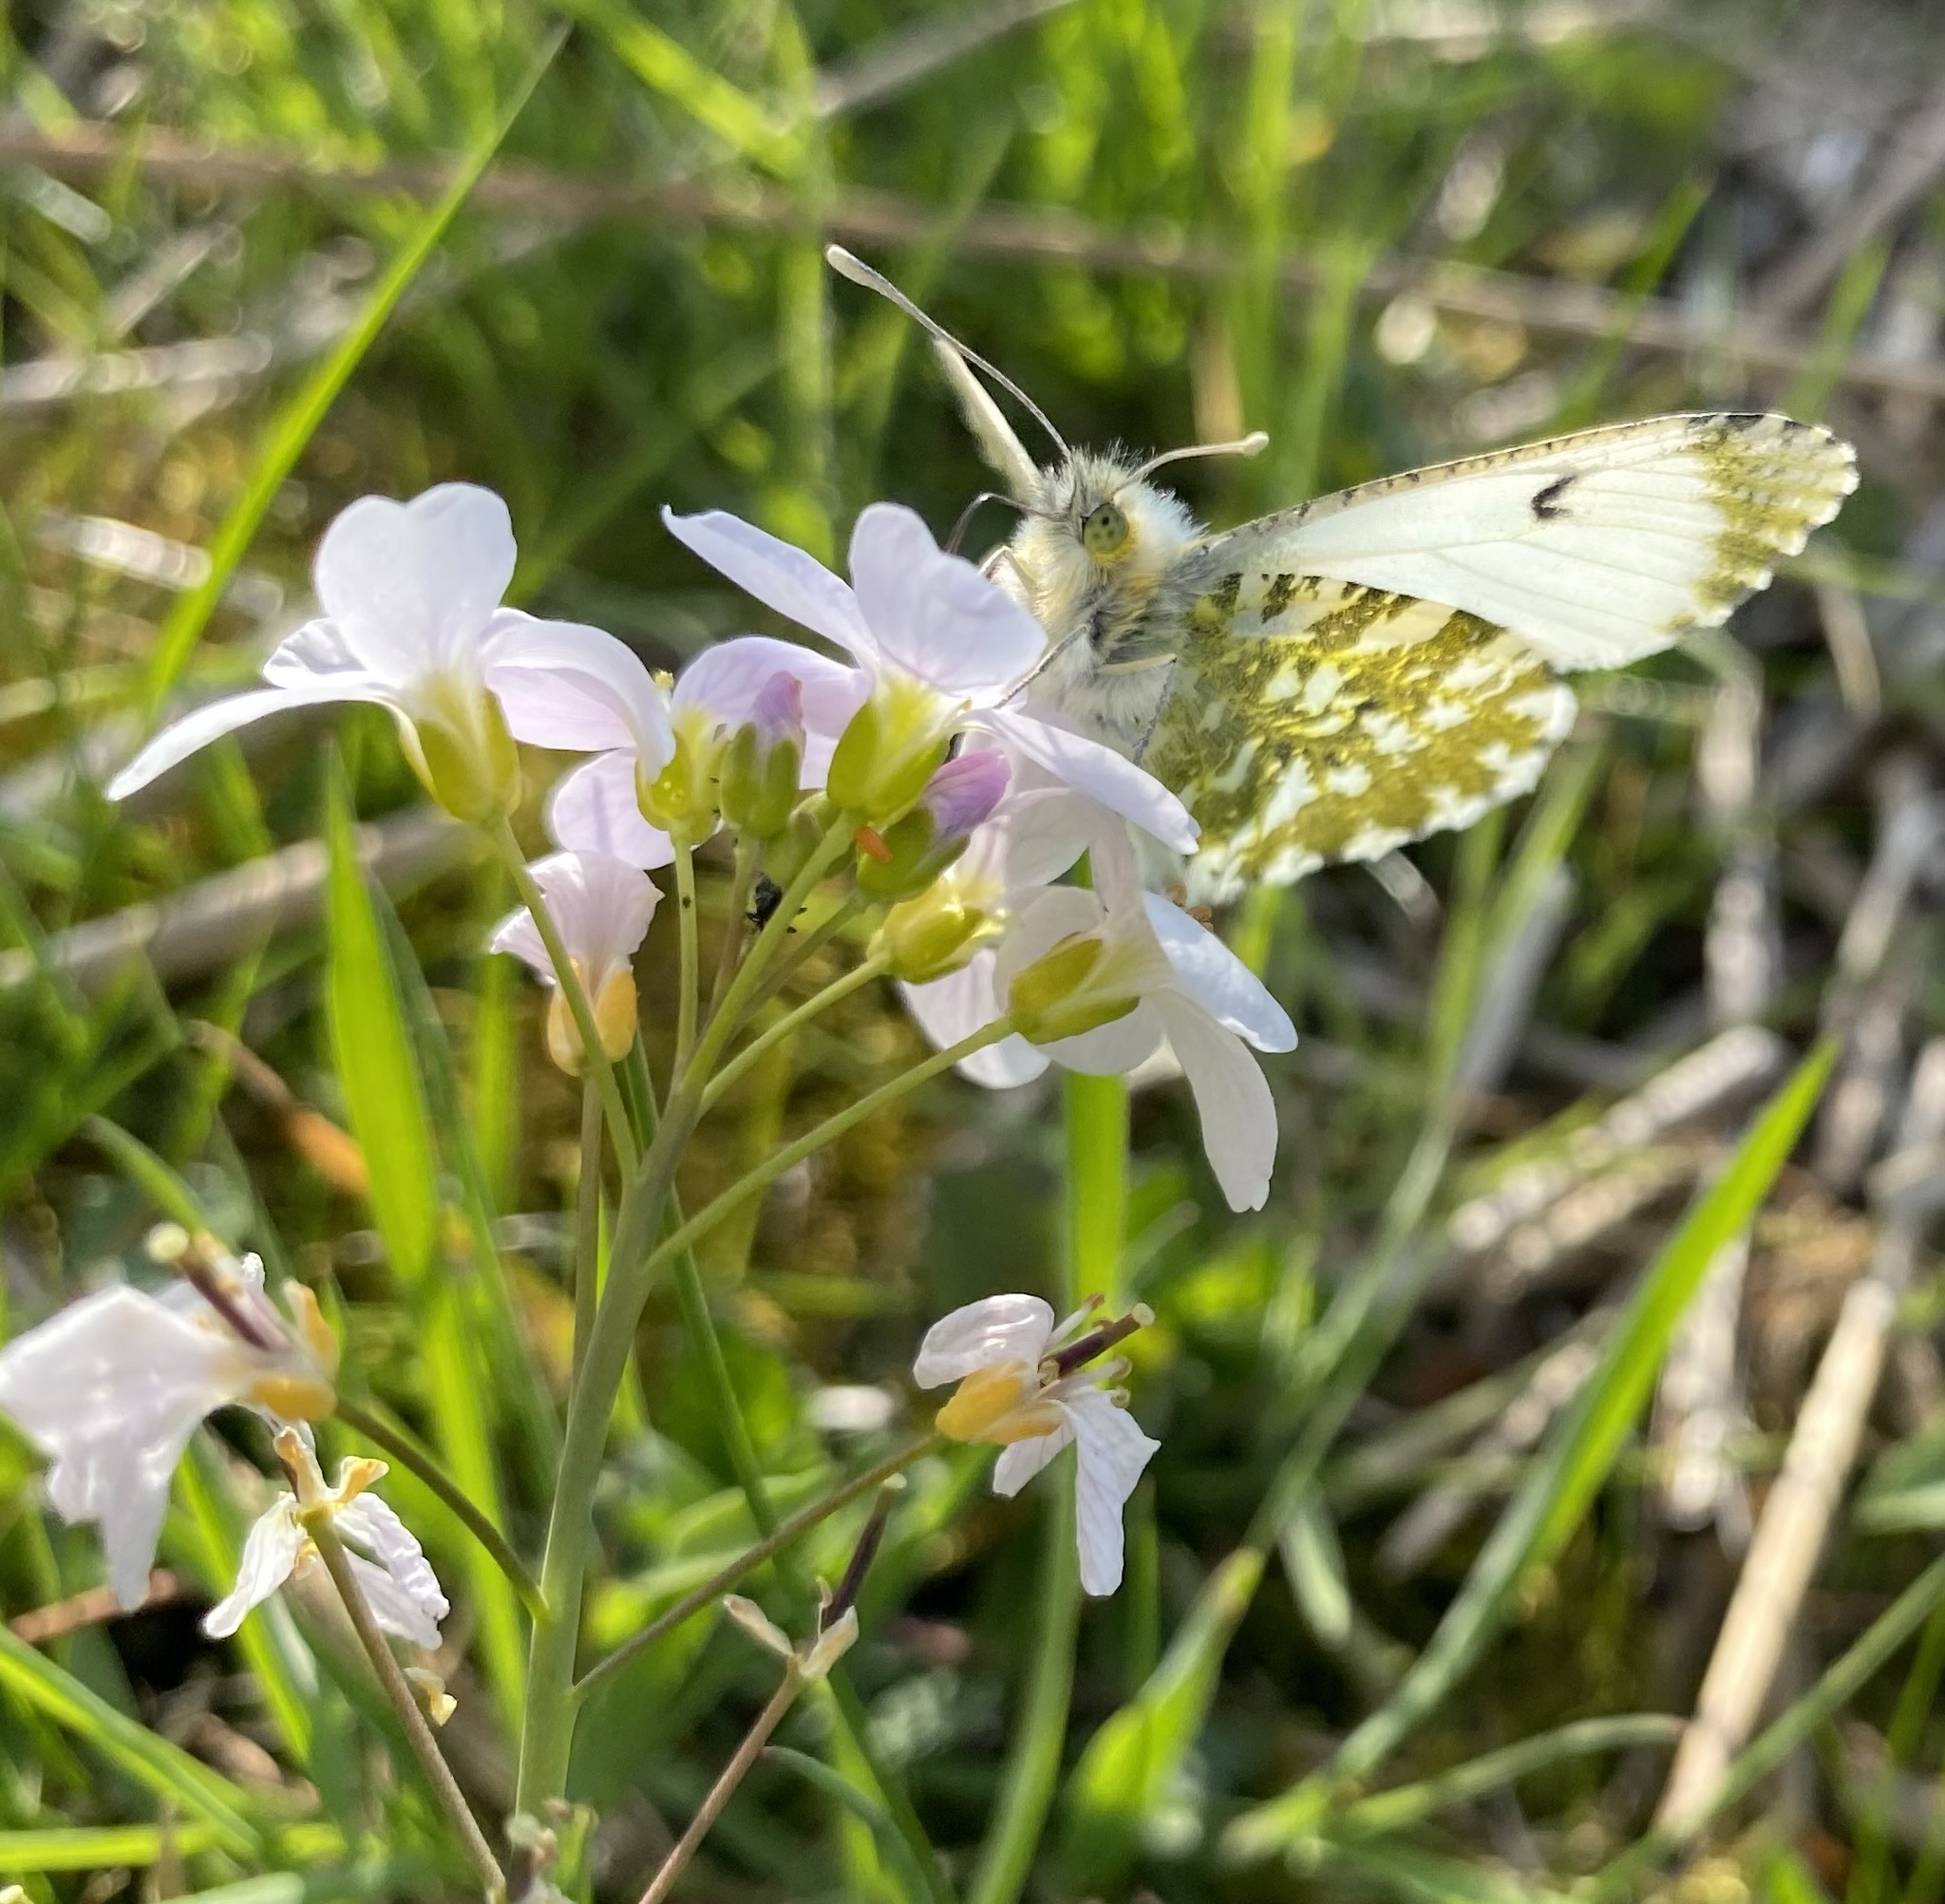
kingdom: Animalia
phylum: Arthropoda
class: Insecta
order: Lepidoptera
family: Pieridae
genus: Anthocharis
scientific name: Anthocharis cardamines
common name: Orange-tip
